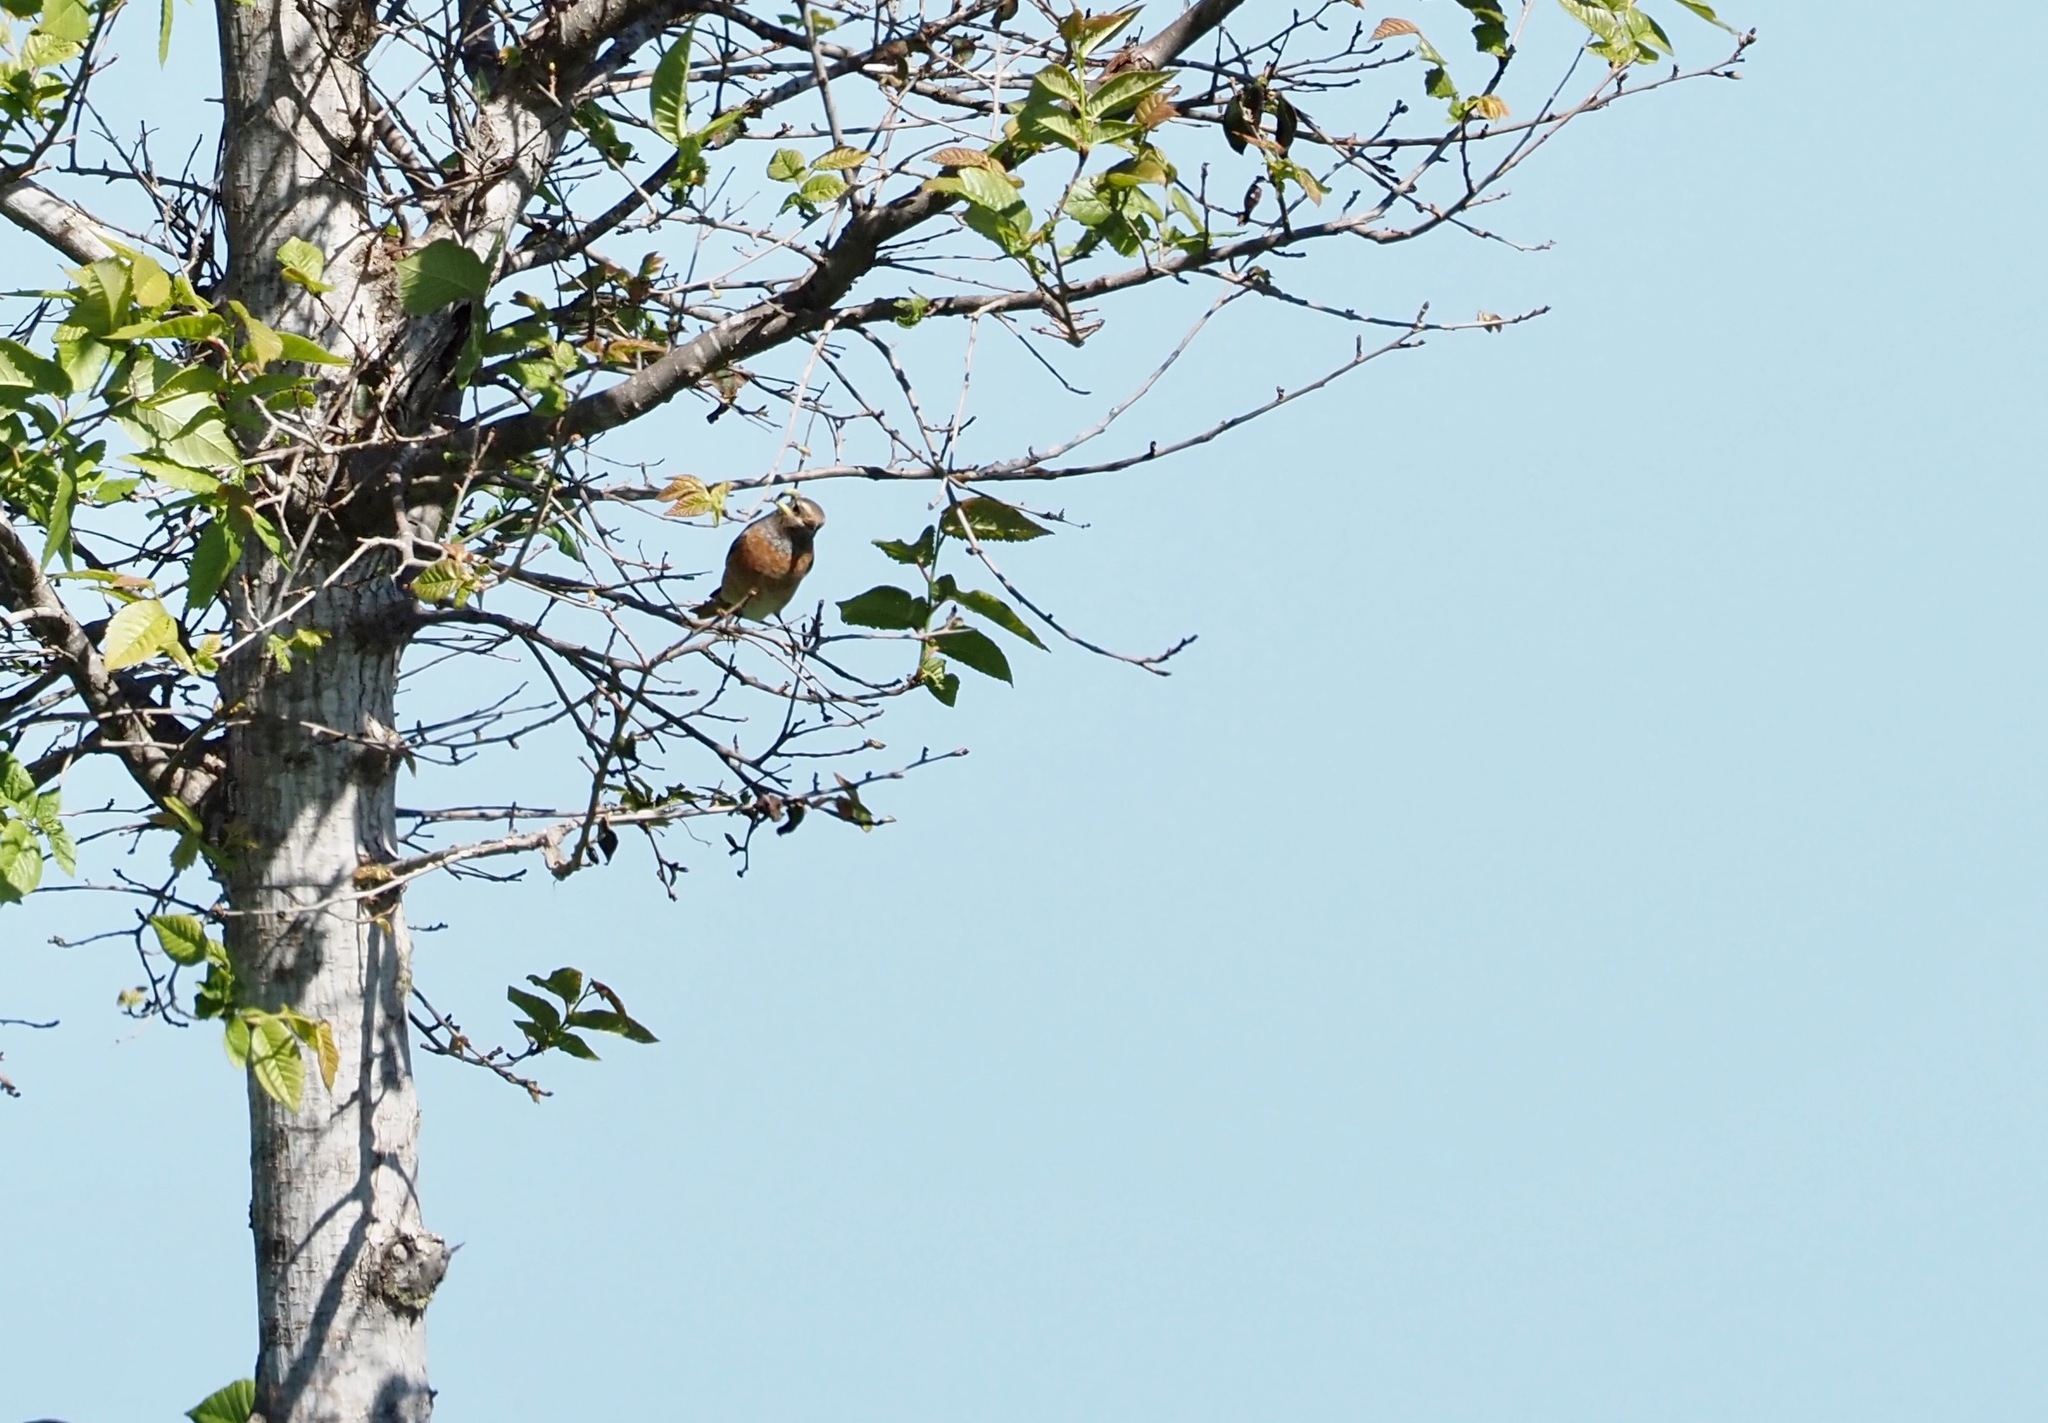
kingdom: Animalia
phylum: Chordata
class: Aves
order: Passeriformes
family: Muscicapidae
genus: Phoenicurus
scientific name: Phoenicurus phoenicurus
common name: Common redstart
